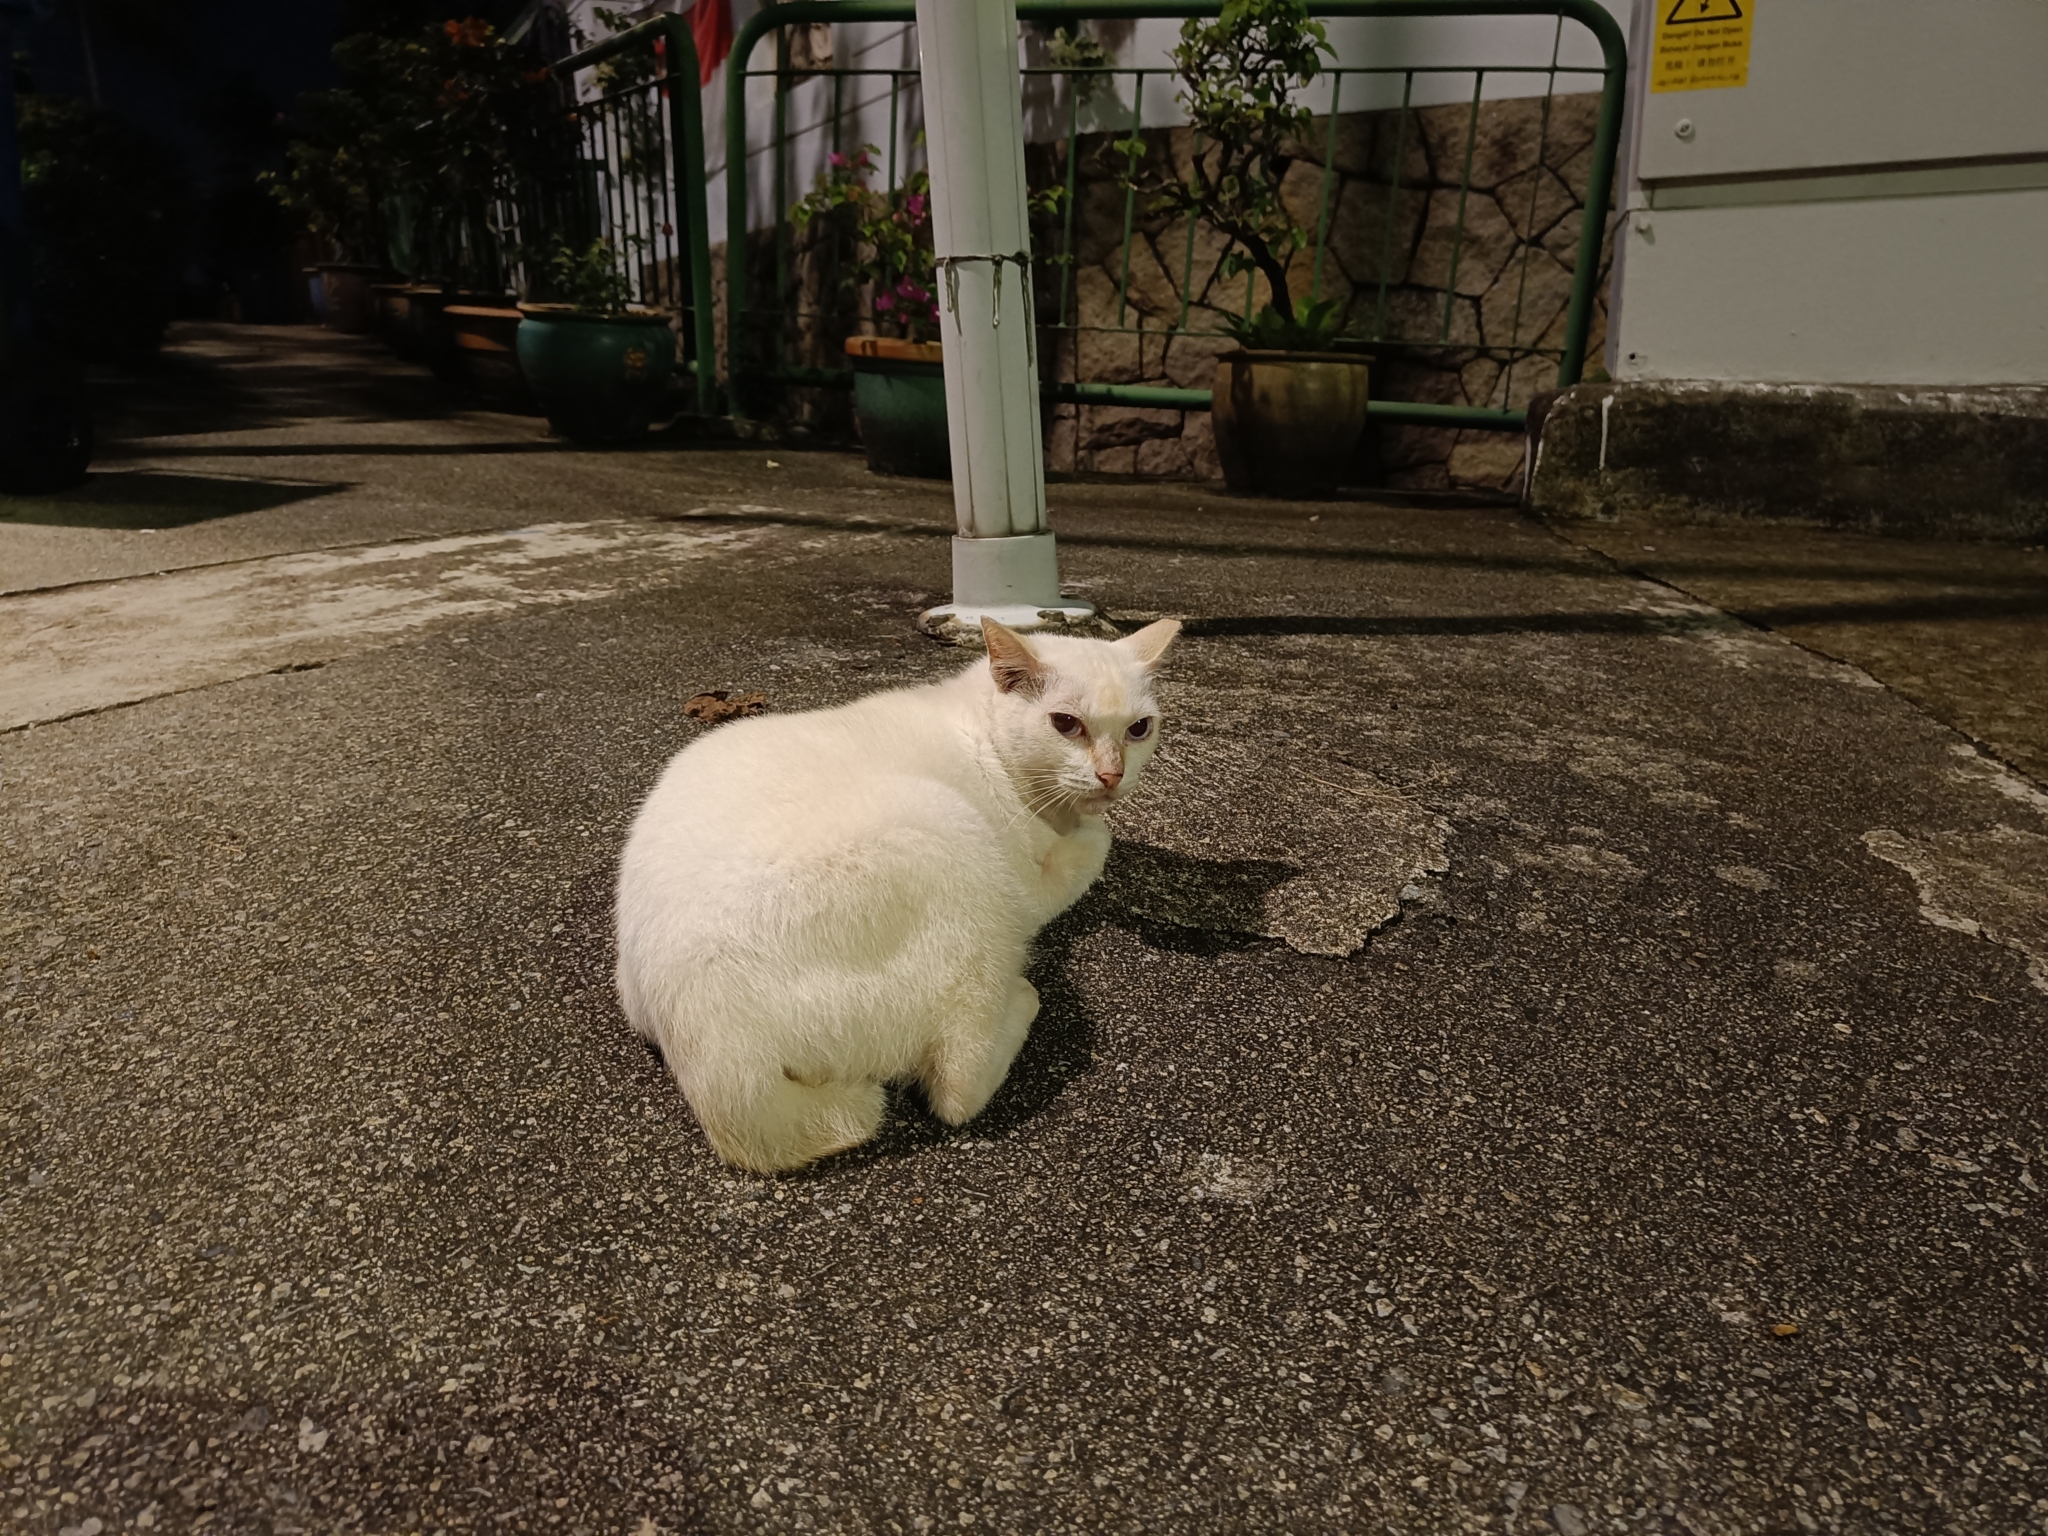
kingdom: Animalia
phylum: Chordata
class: Mammalia
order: Carnivora
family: Felidae
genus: Felis
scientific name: Felis catus
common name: Domestic cat
